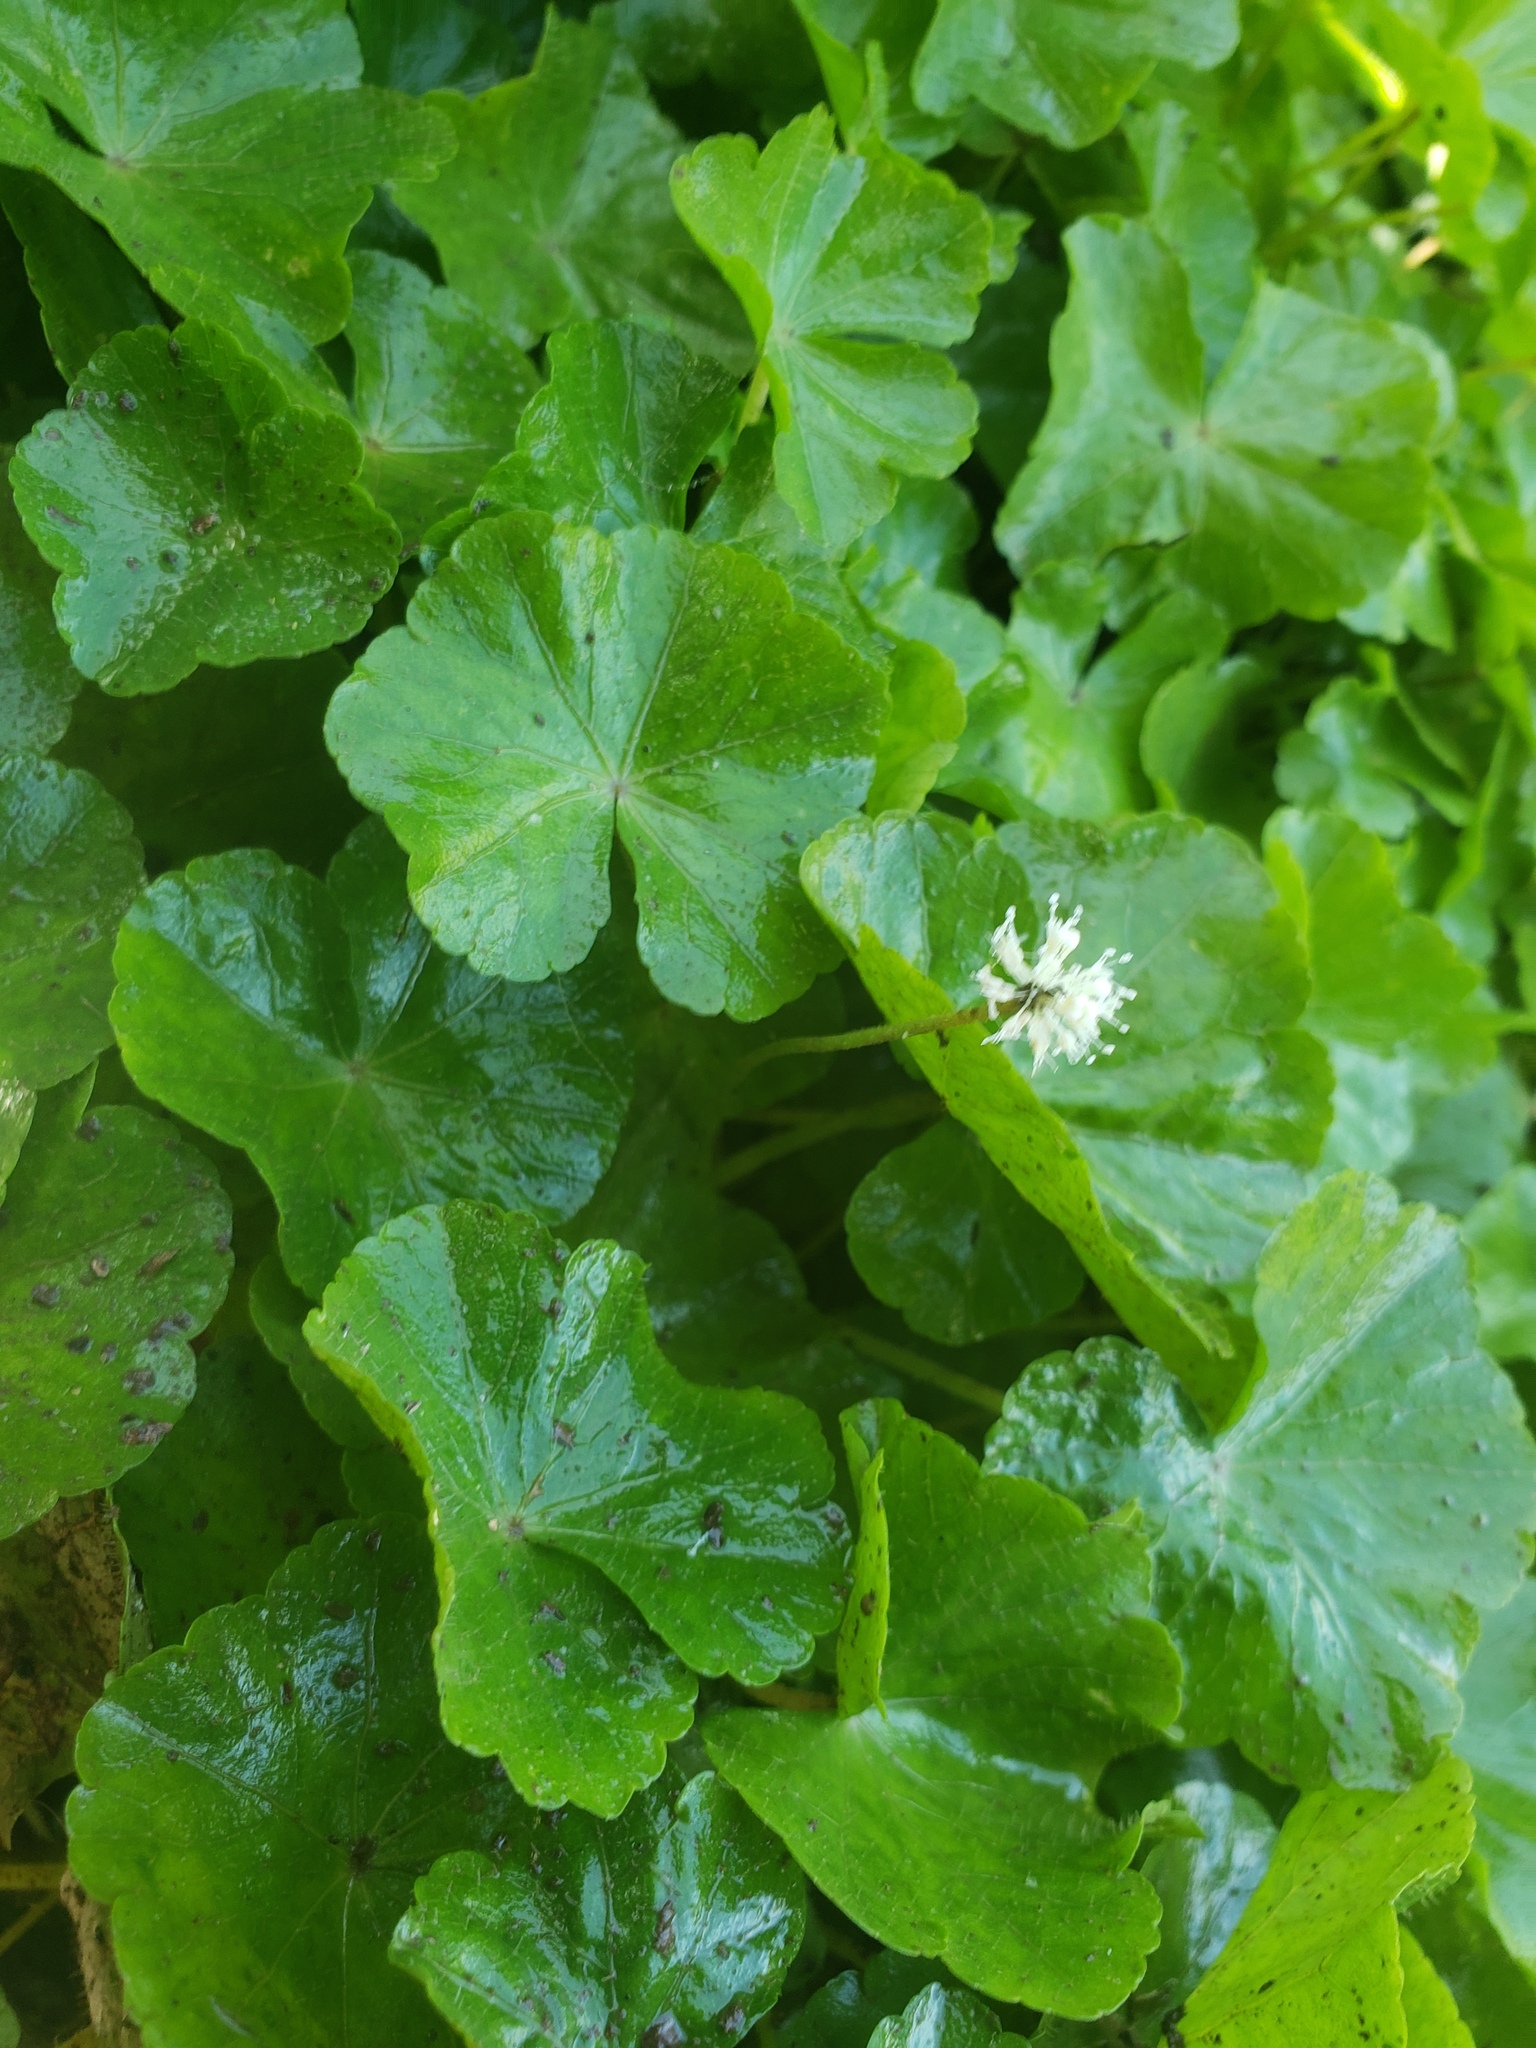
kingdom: Plantae
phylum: Tracheophyta
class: Magnoliopsida
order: Apiales
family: Araliaceae
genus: Hydrocotyle
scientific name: Hydrocotyle leucocephala
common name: Brazilian pennywort
